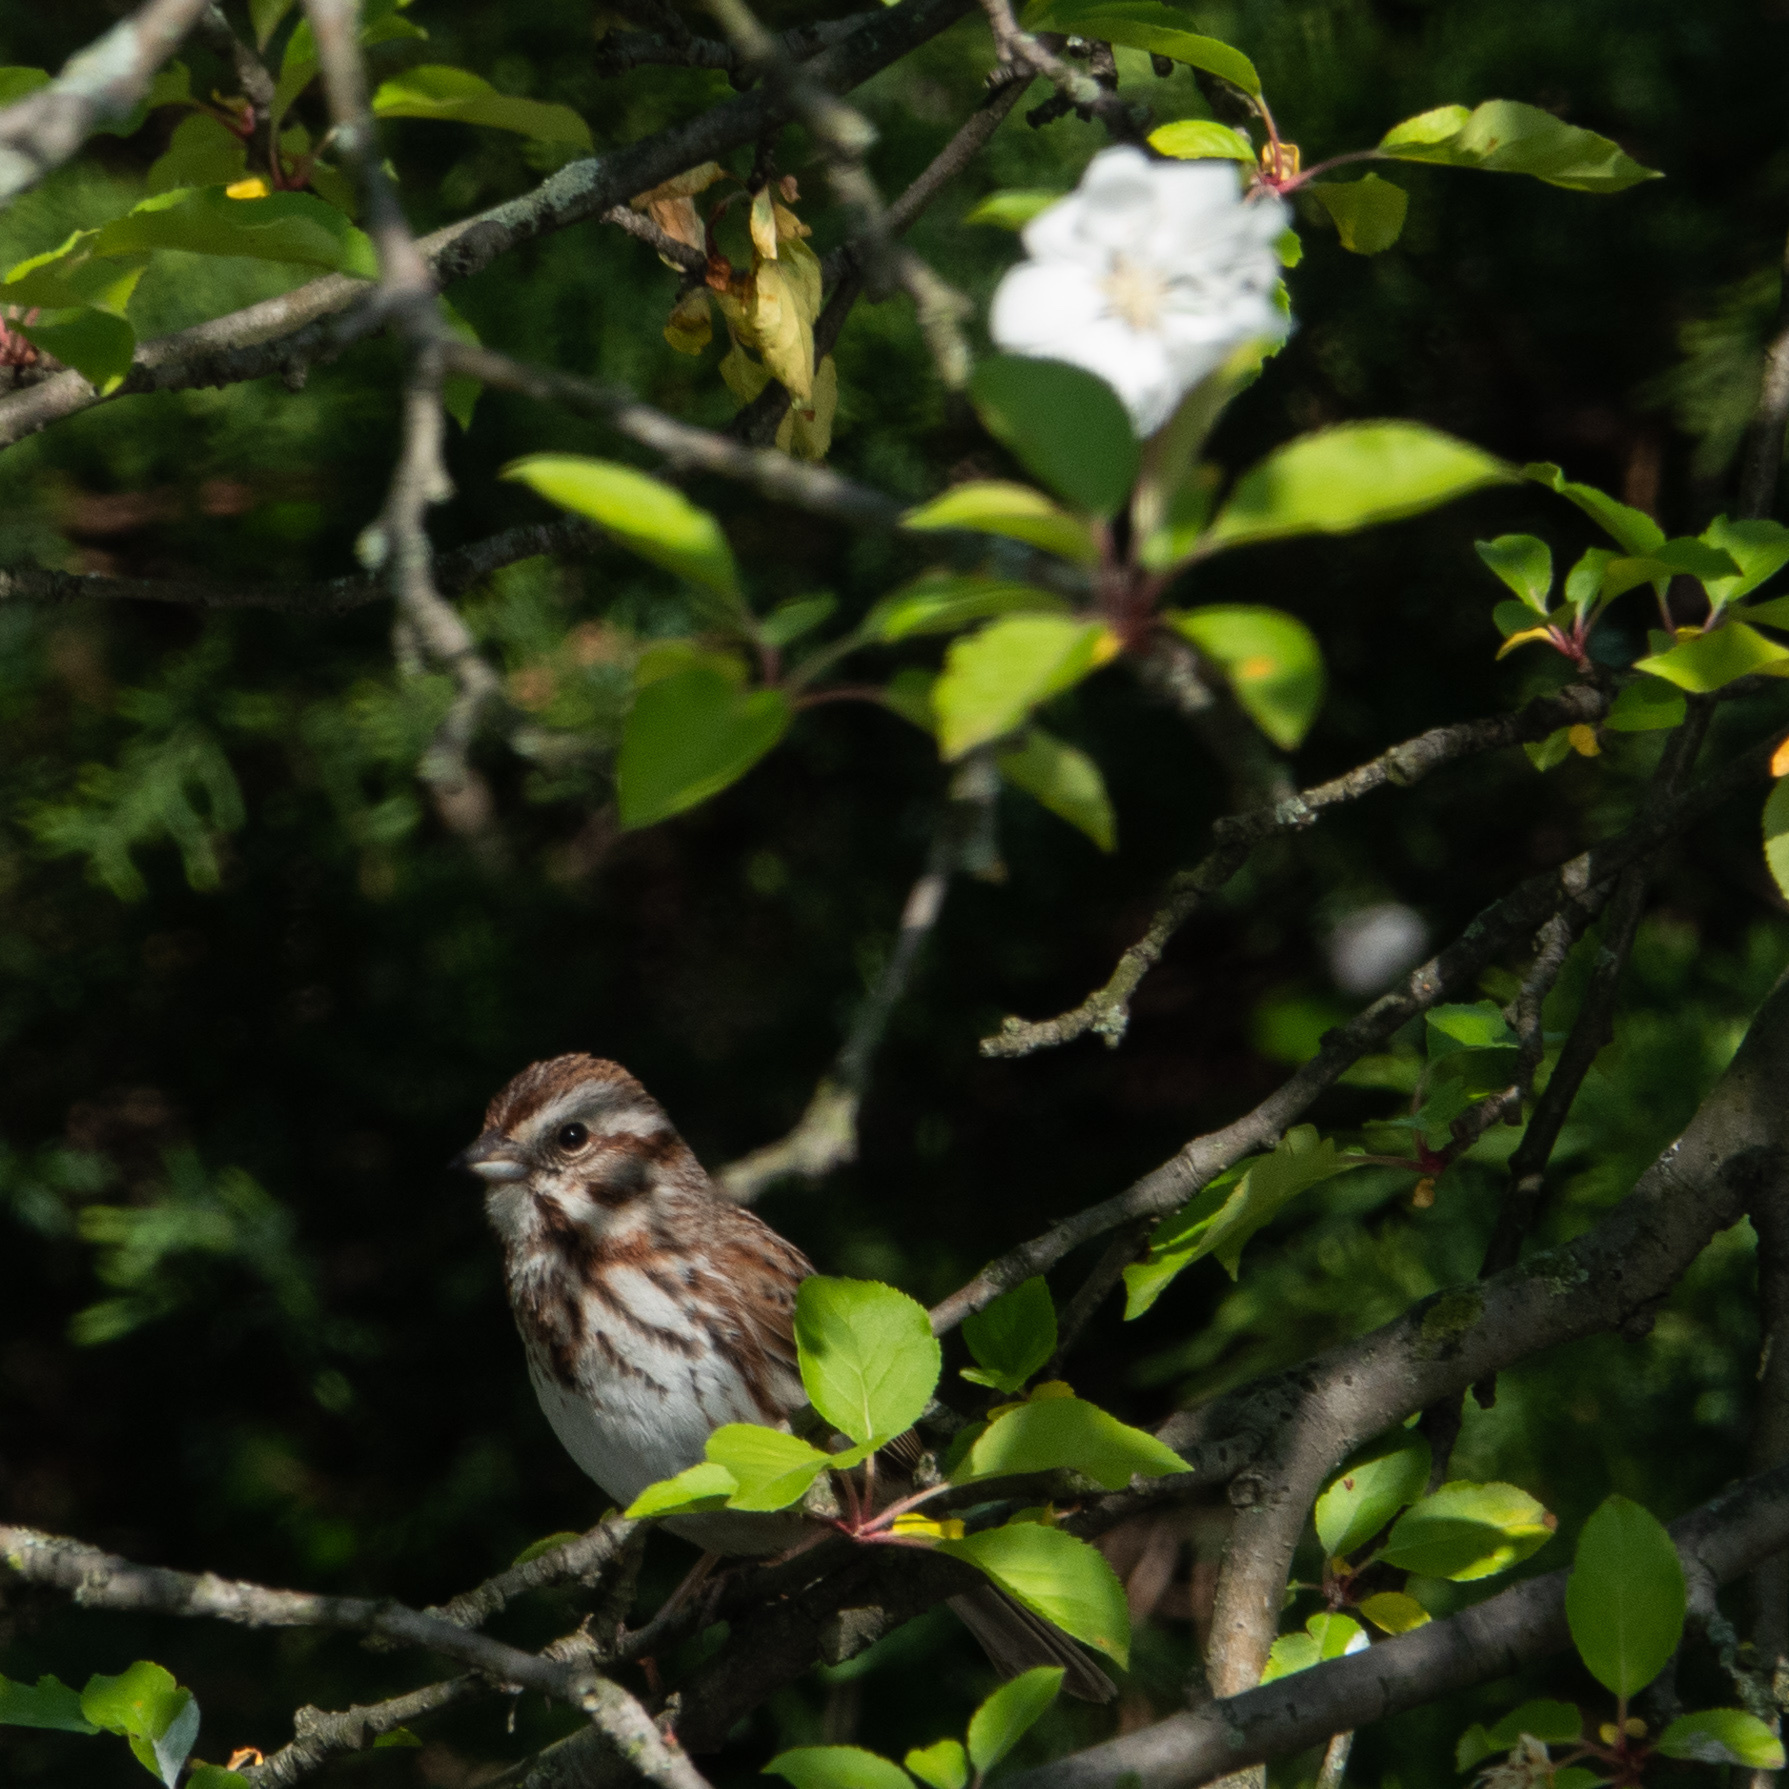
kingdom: Animalia
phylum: Chordata
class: Aves
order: Passeriformes
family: Passerellidae
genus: Melospiza
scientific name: Melospiza melodia
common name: Song sparrow
